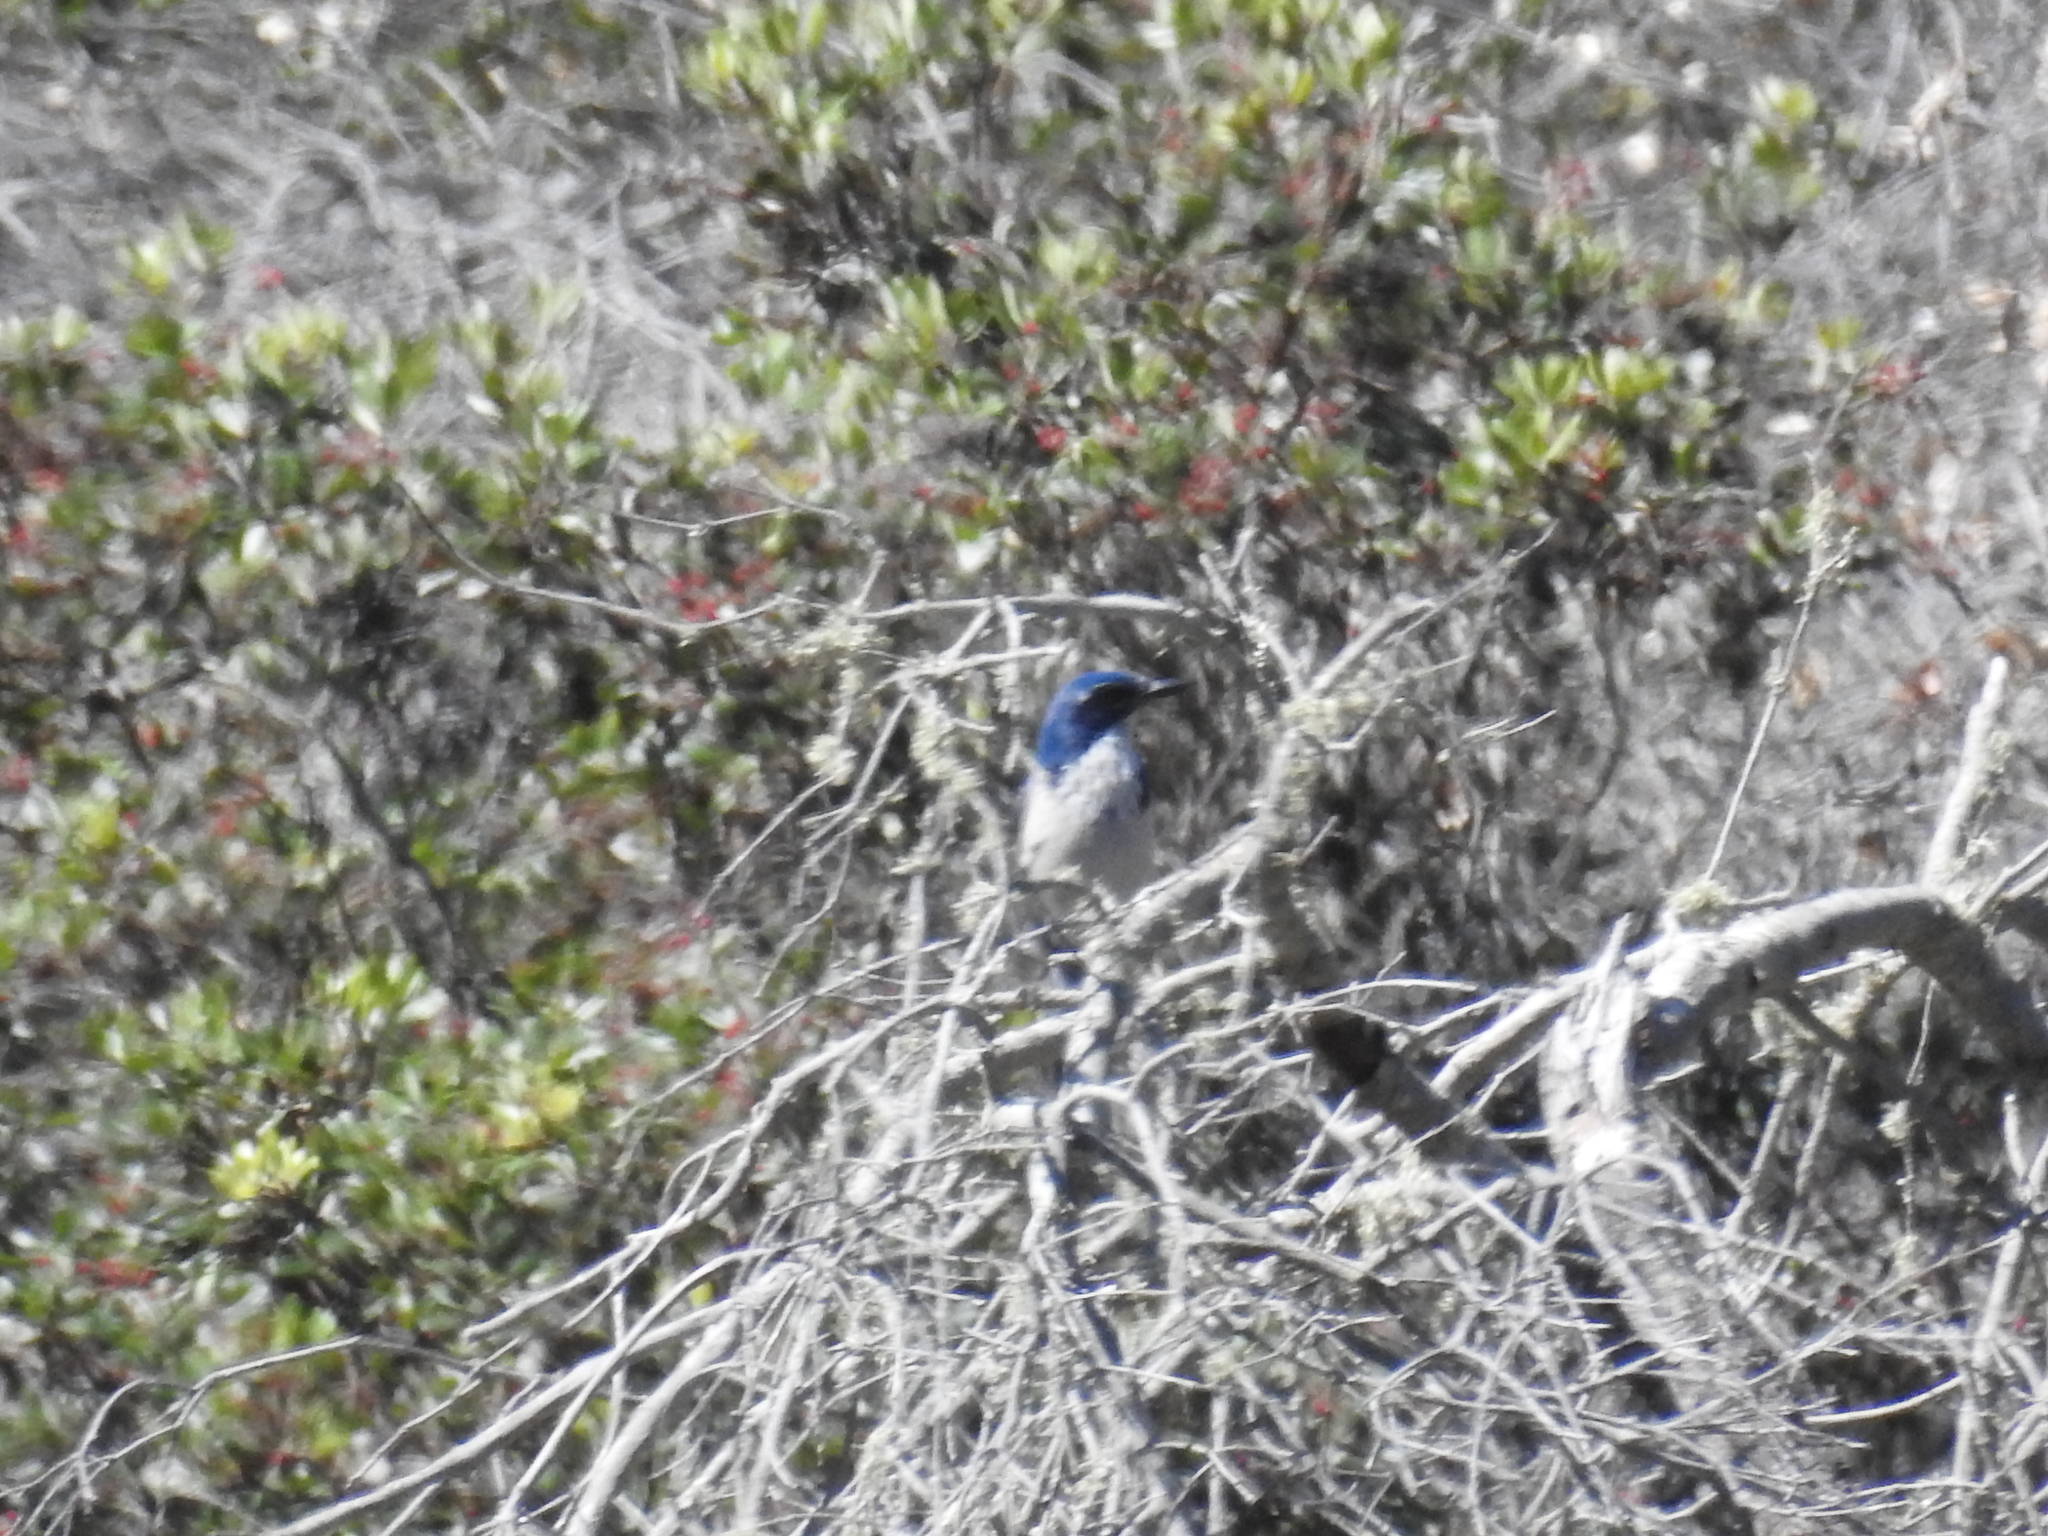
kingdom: Animalia
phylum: Chordata
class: Aves
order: Passeriformes
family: Corvidae
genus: Aphelocoma
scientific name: Aphelocoma insularis
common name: Island scrub-jay
